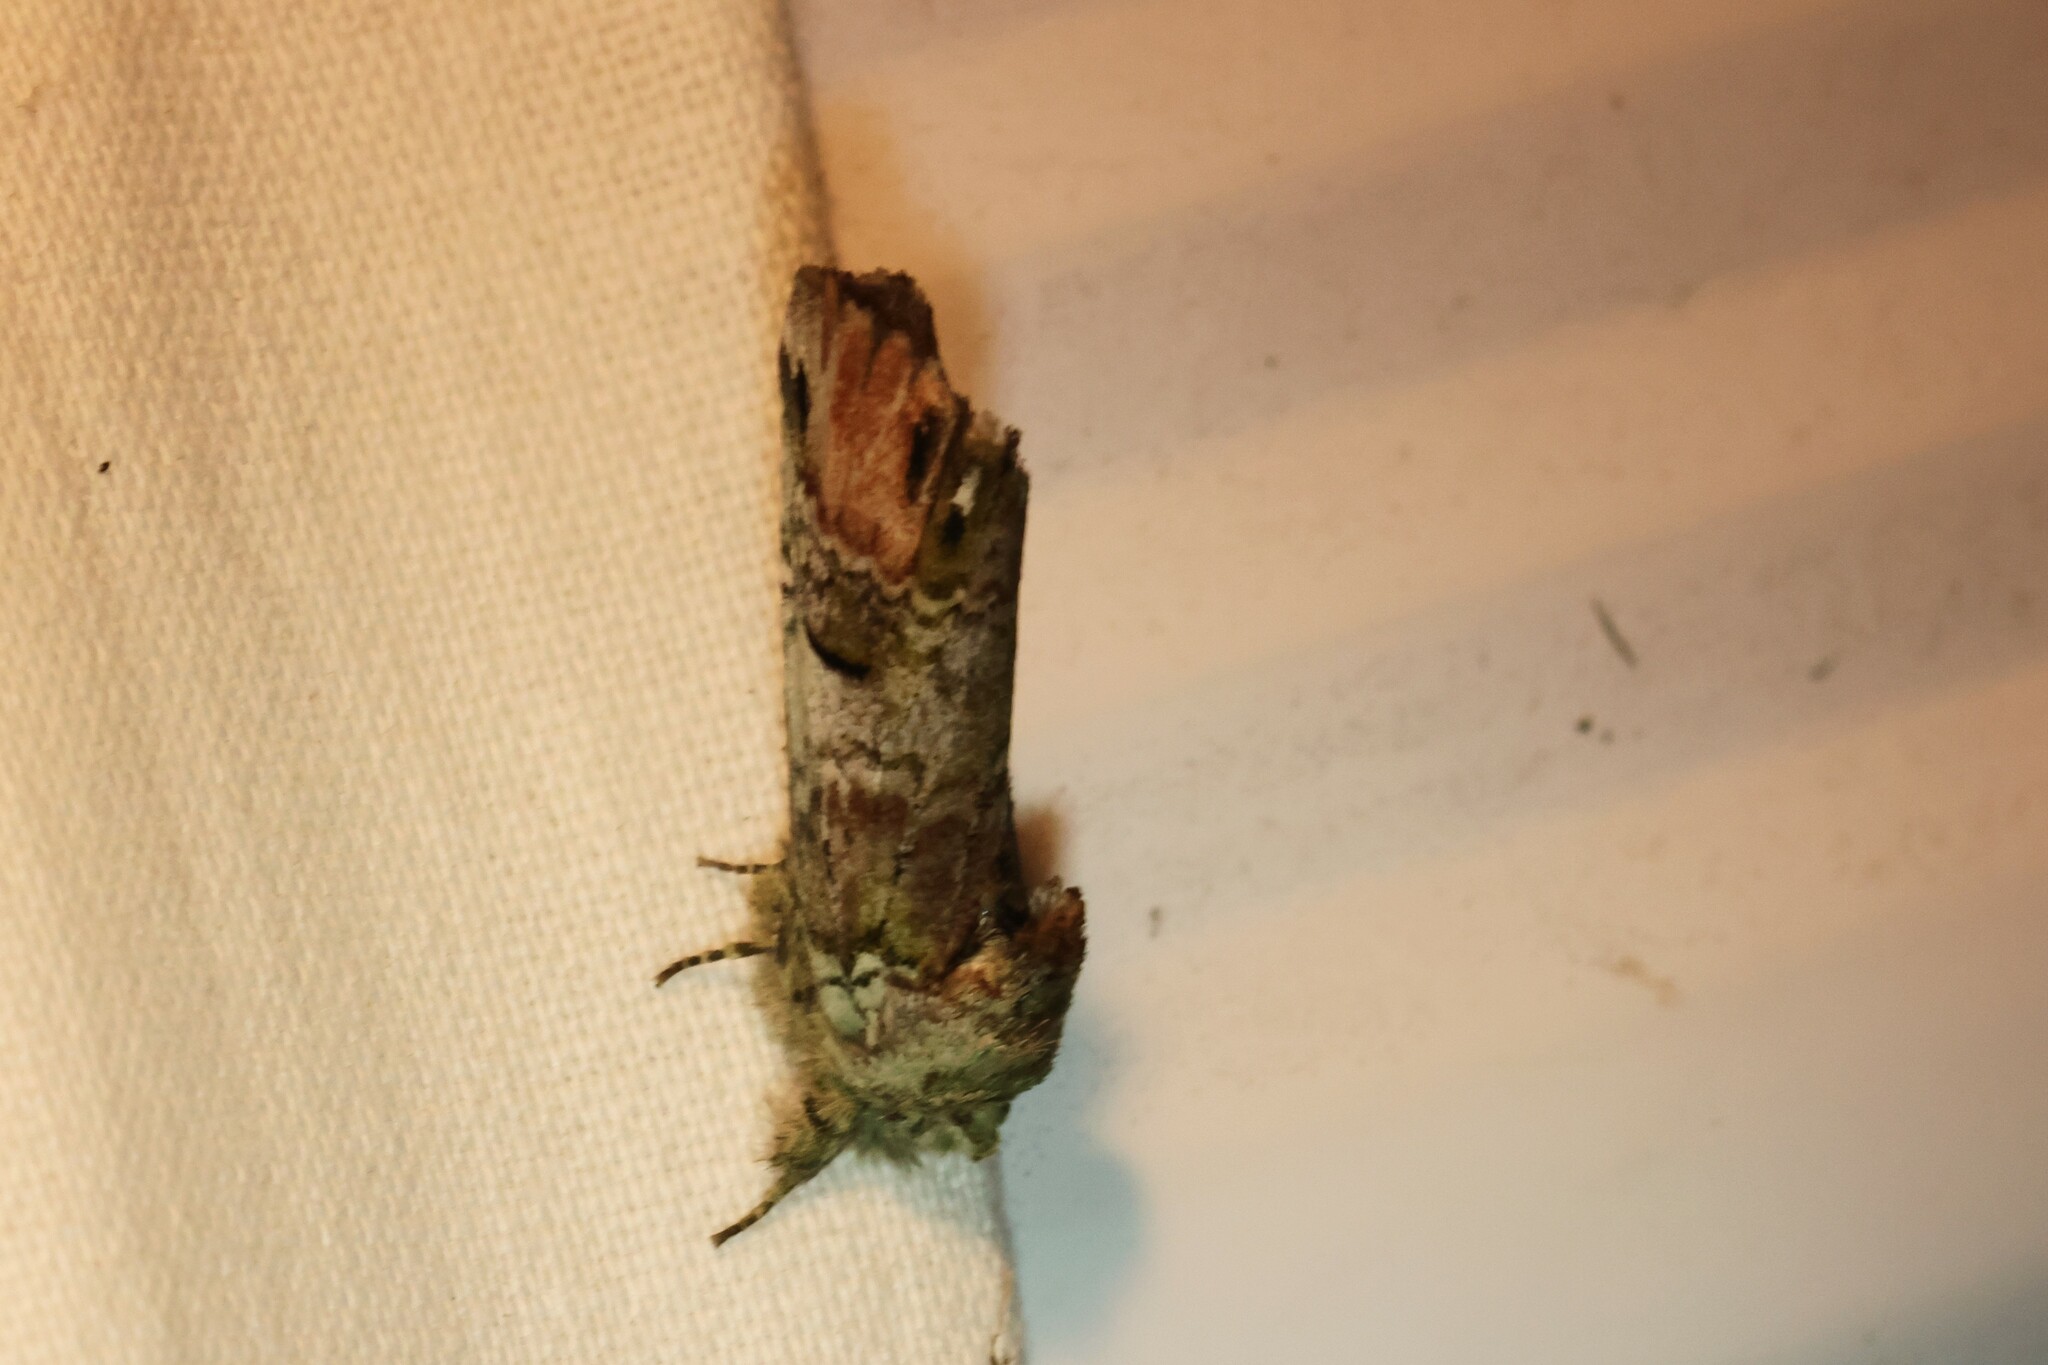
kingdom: Animalia
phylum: Arthropoda
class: Insecta
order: Lepidoptera
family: Notodontidae
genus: Schizura
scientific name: Schizura
